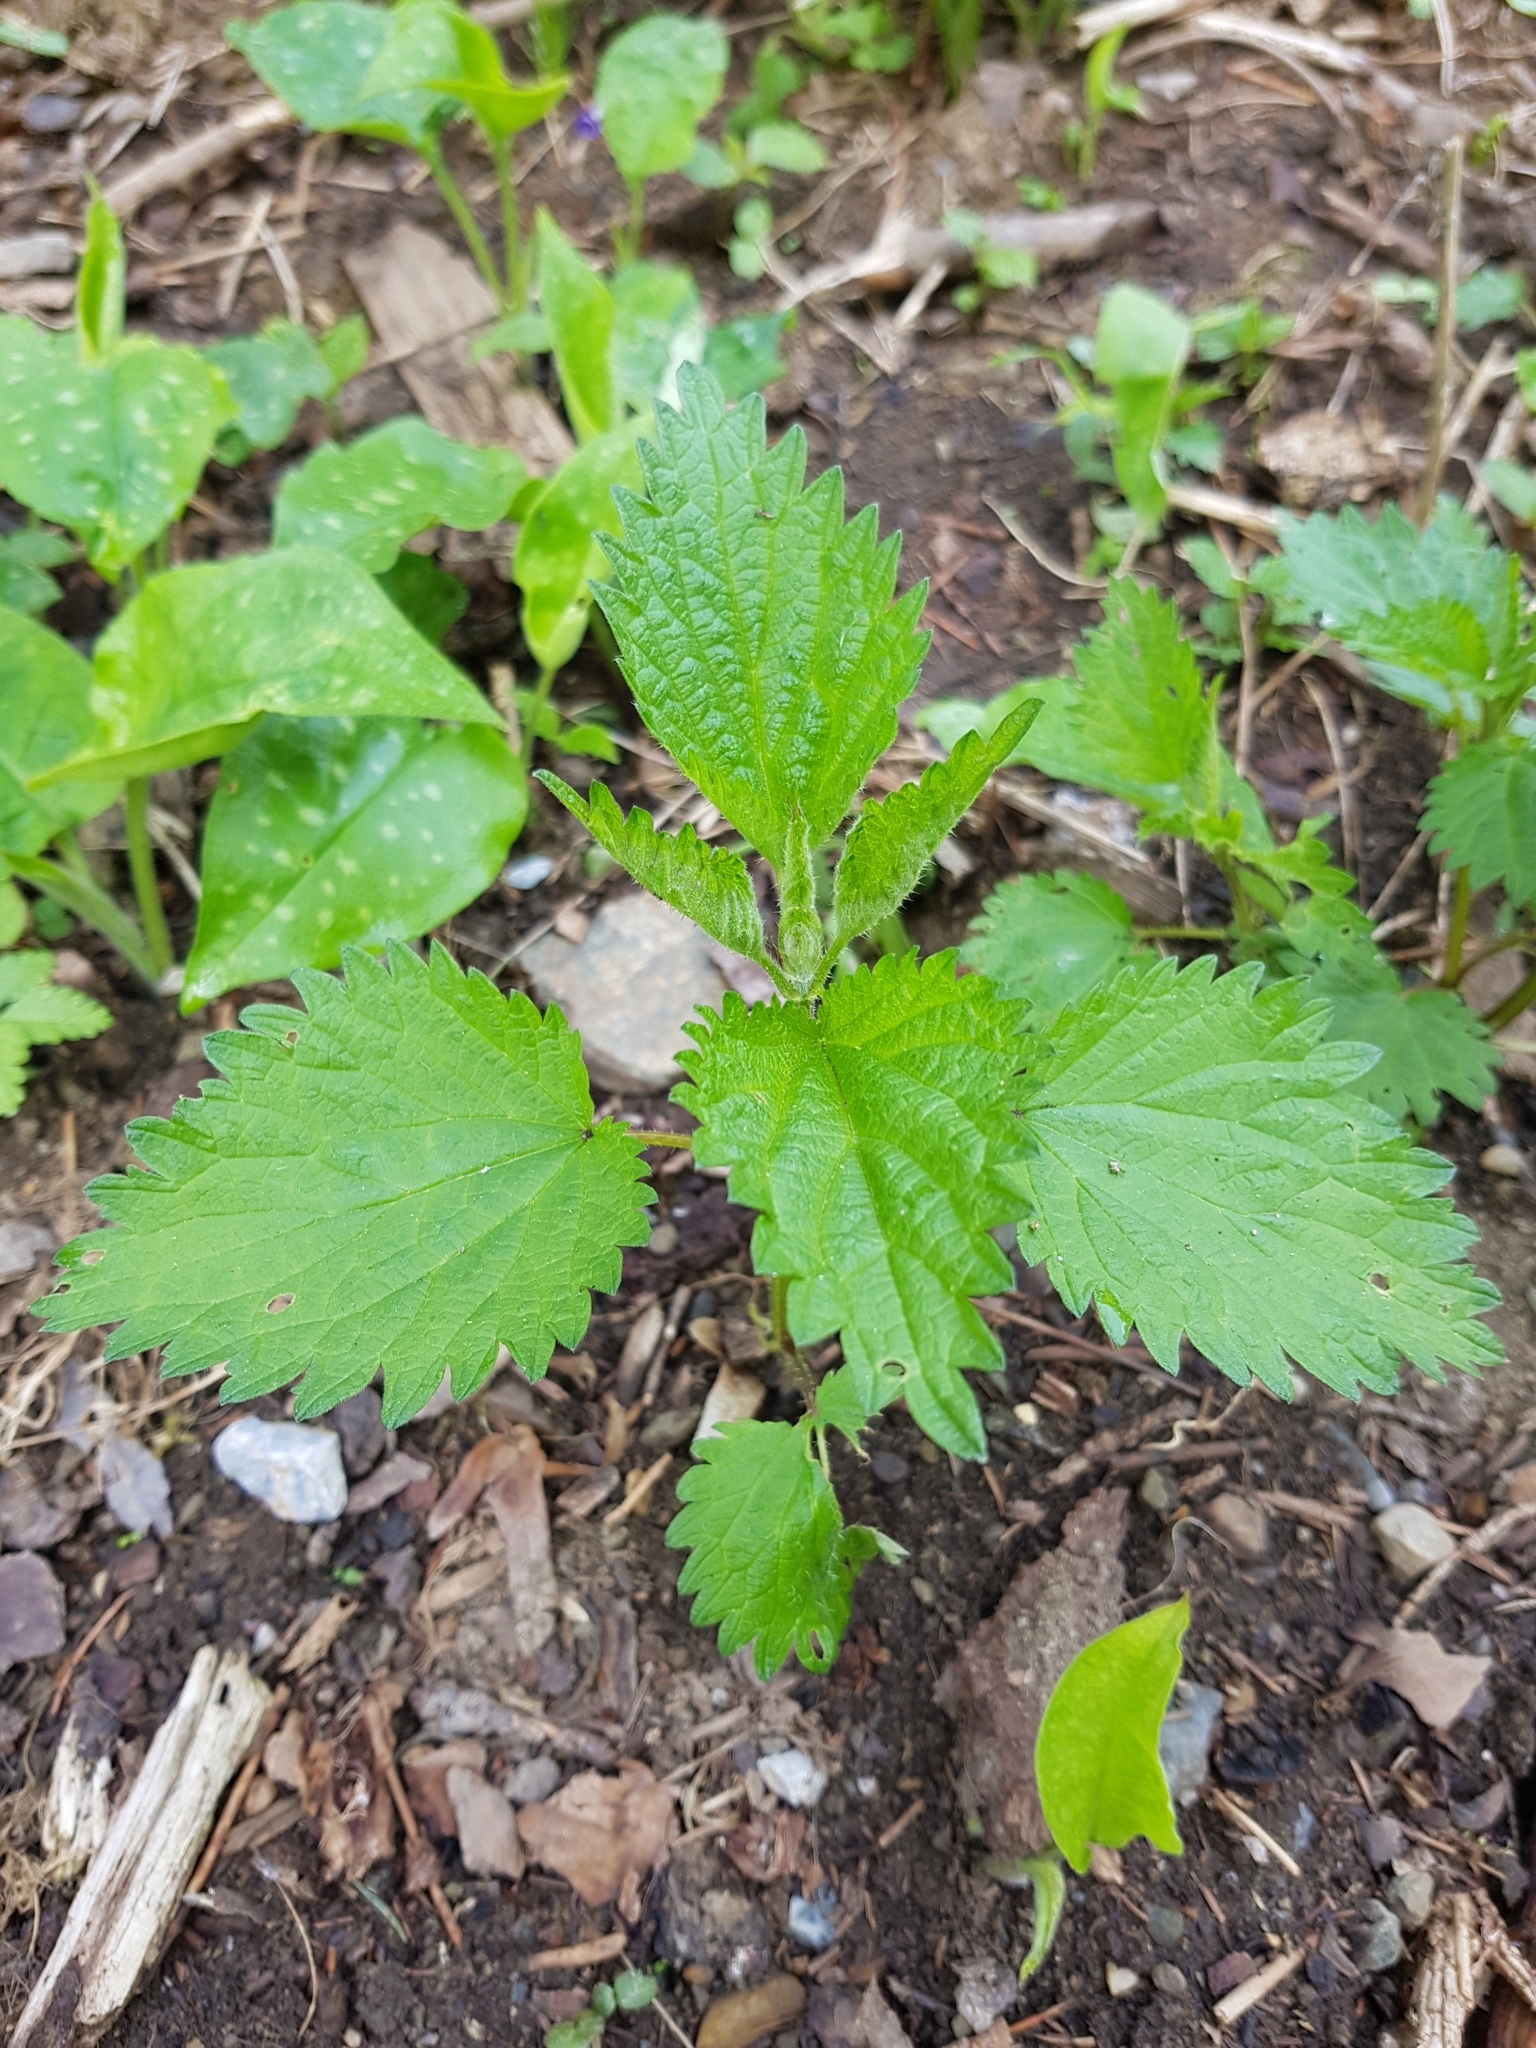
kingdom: Plantae
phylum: Tracheophyta
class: Magnoliopsida
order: Rosales
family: Urticaceae
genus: Urtica
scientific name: Urtica dioica
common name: Common nettle
